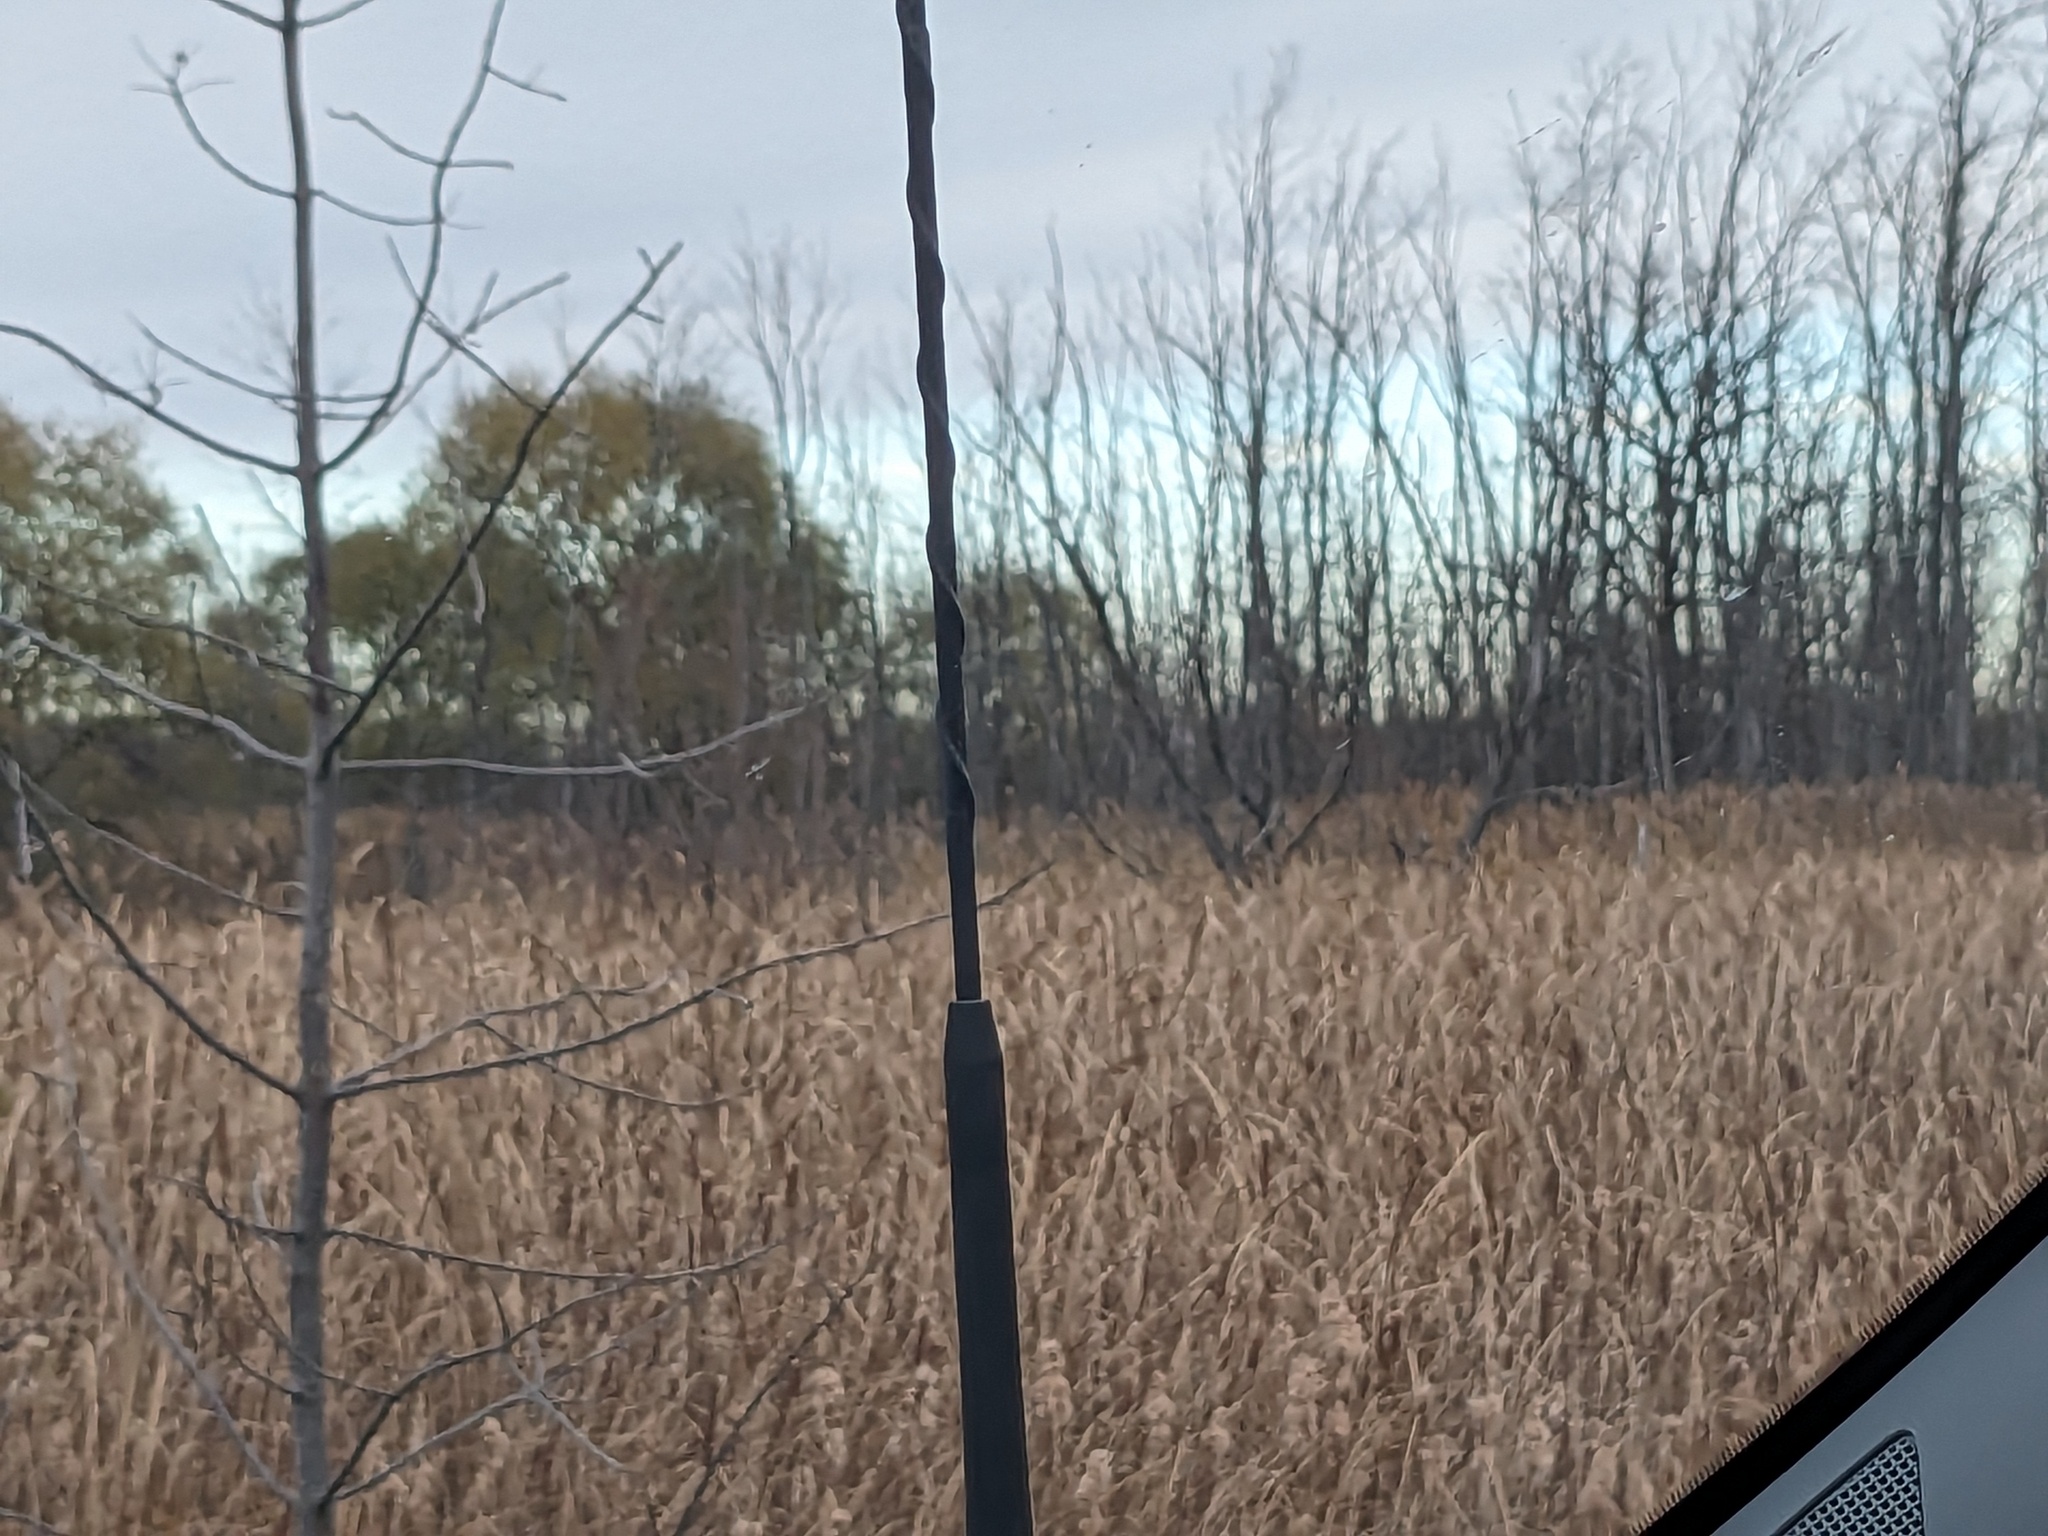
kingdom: Plantae
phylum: Tracheophyta
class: Liliopsida
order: Poales
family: Poaceae
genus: Phragmites
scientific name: Phragmites australis
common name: Common reed
